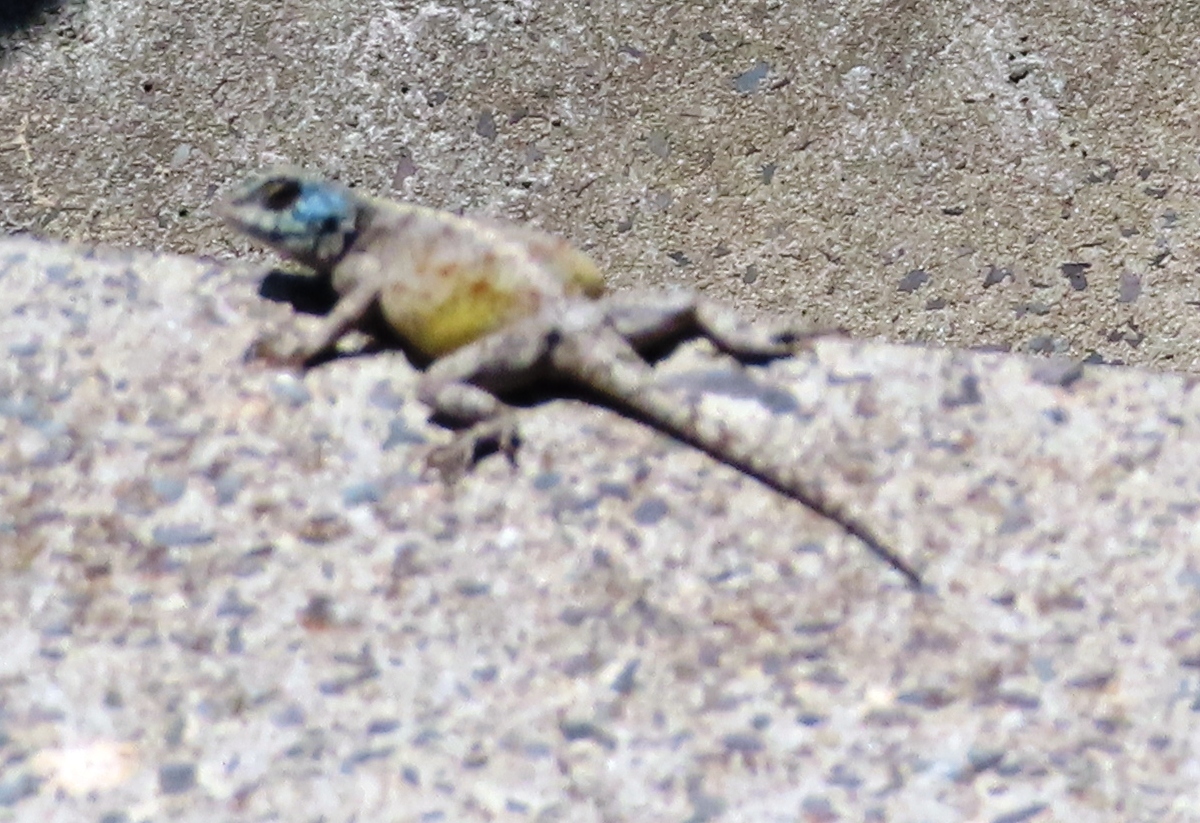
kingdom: Animalia
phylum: Chordata
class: Squamata
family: Agamidae
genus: Agama
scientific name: Agama atra
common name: Southern african rock agama
